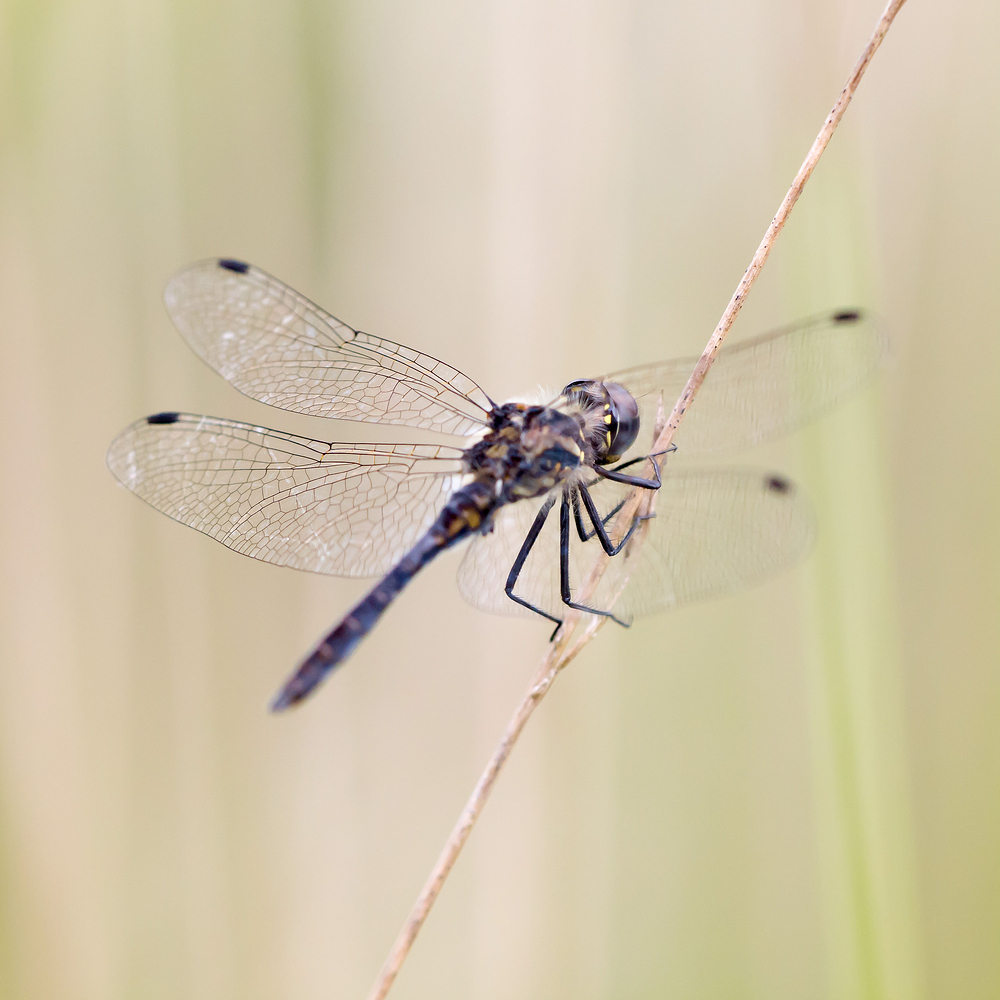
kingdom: Animalia
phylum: Arthropoda
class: Insecta
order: Odonata
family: Libellulidae
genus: Sympetrum
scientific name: Sympetrum danae
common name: Black darter
